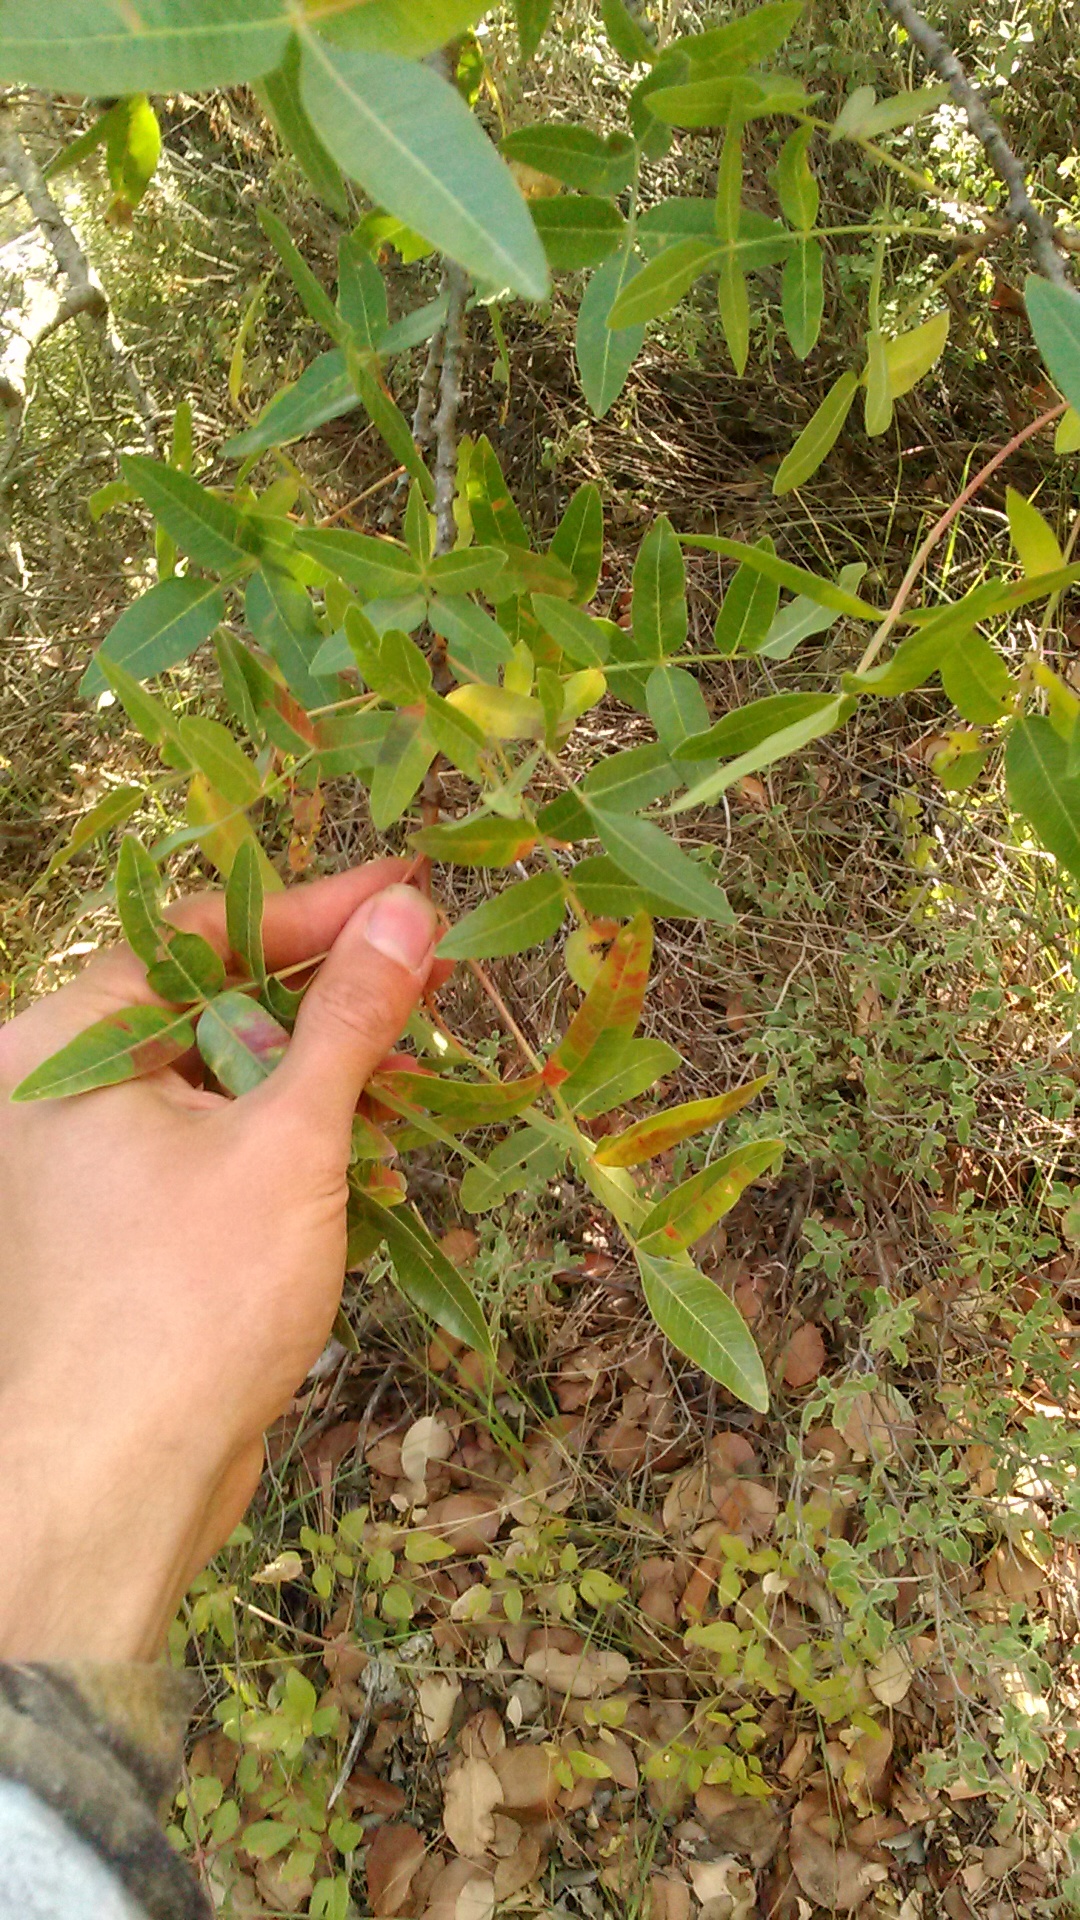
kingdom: Plantae
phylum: Tracheophyta
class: Magnoliopsida
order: Sapindales
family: Anacardiaceae
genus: Pistacia
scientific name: Pistacia atlantica
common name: Mt. atlas mastic tree
